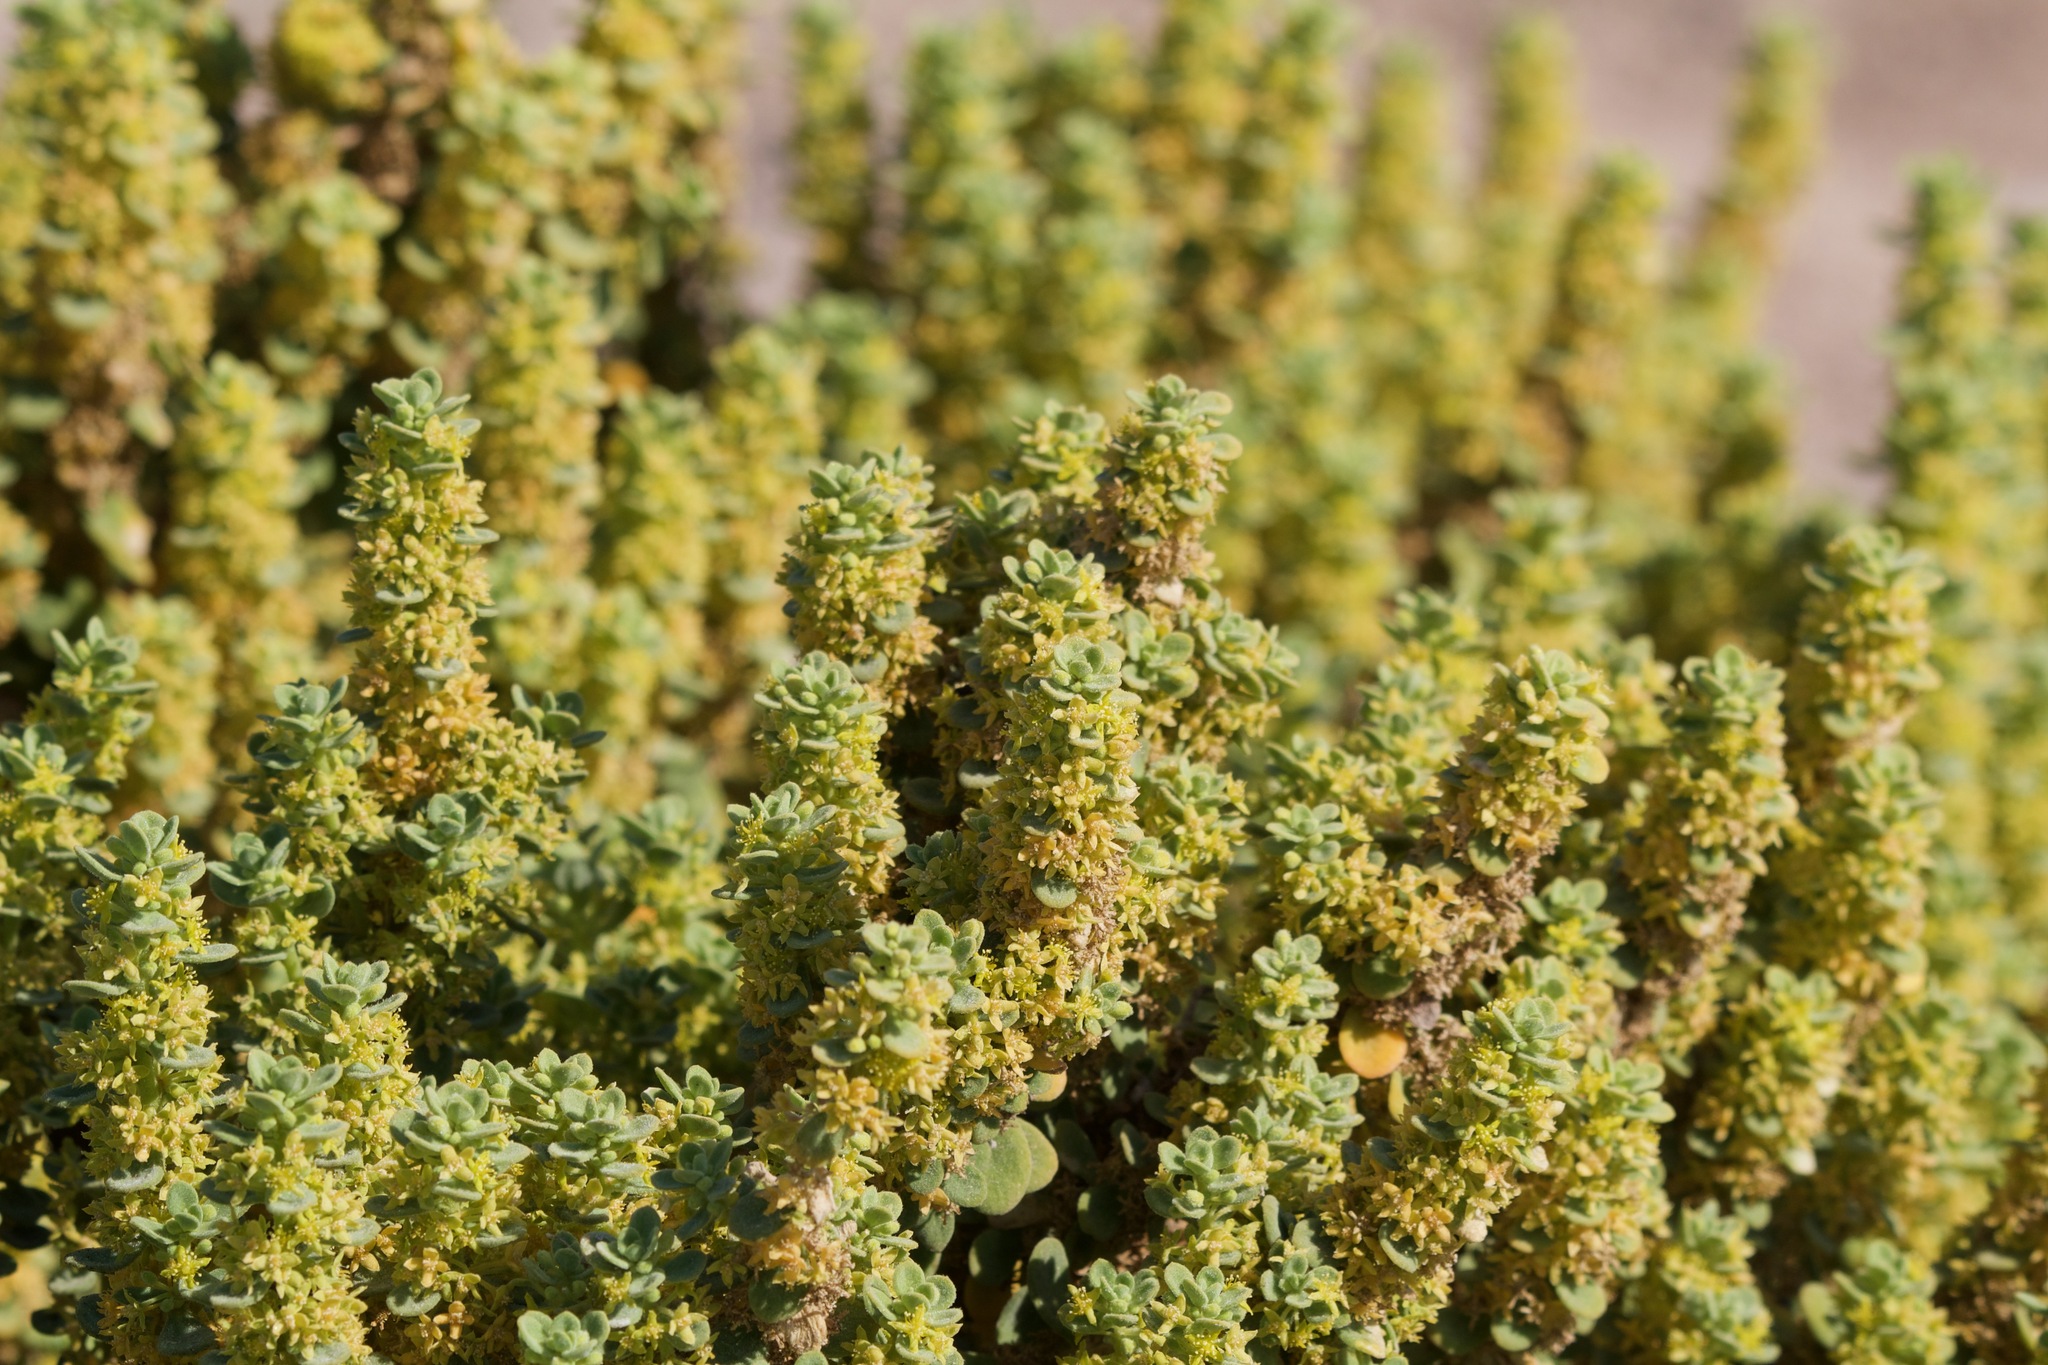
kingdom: Plantae
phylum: Tracheophyta
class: Magnoliopsida
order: Caryophyllales
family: Aizoaceae
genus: Tetragonia
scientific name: Tetragonia maritima
